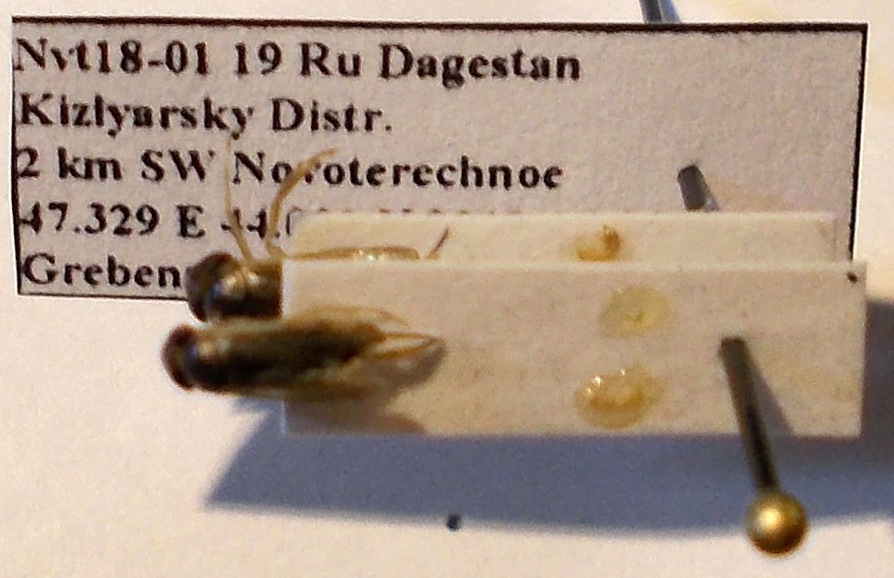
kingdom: Animalia
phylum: Arthropoda
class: Insecta
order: Hemiptera
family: Corixidae
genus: Sigara
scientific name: Sigara lateralis
